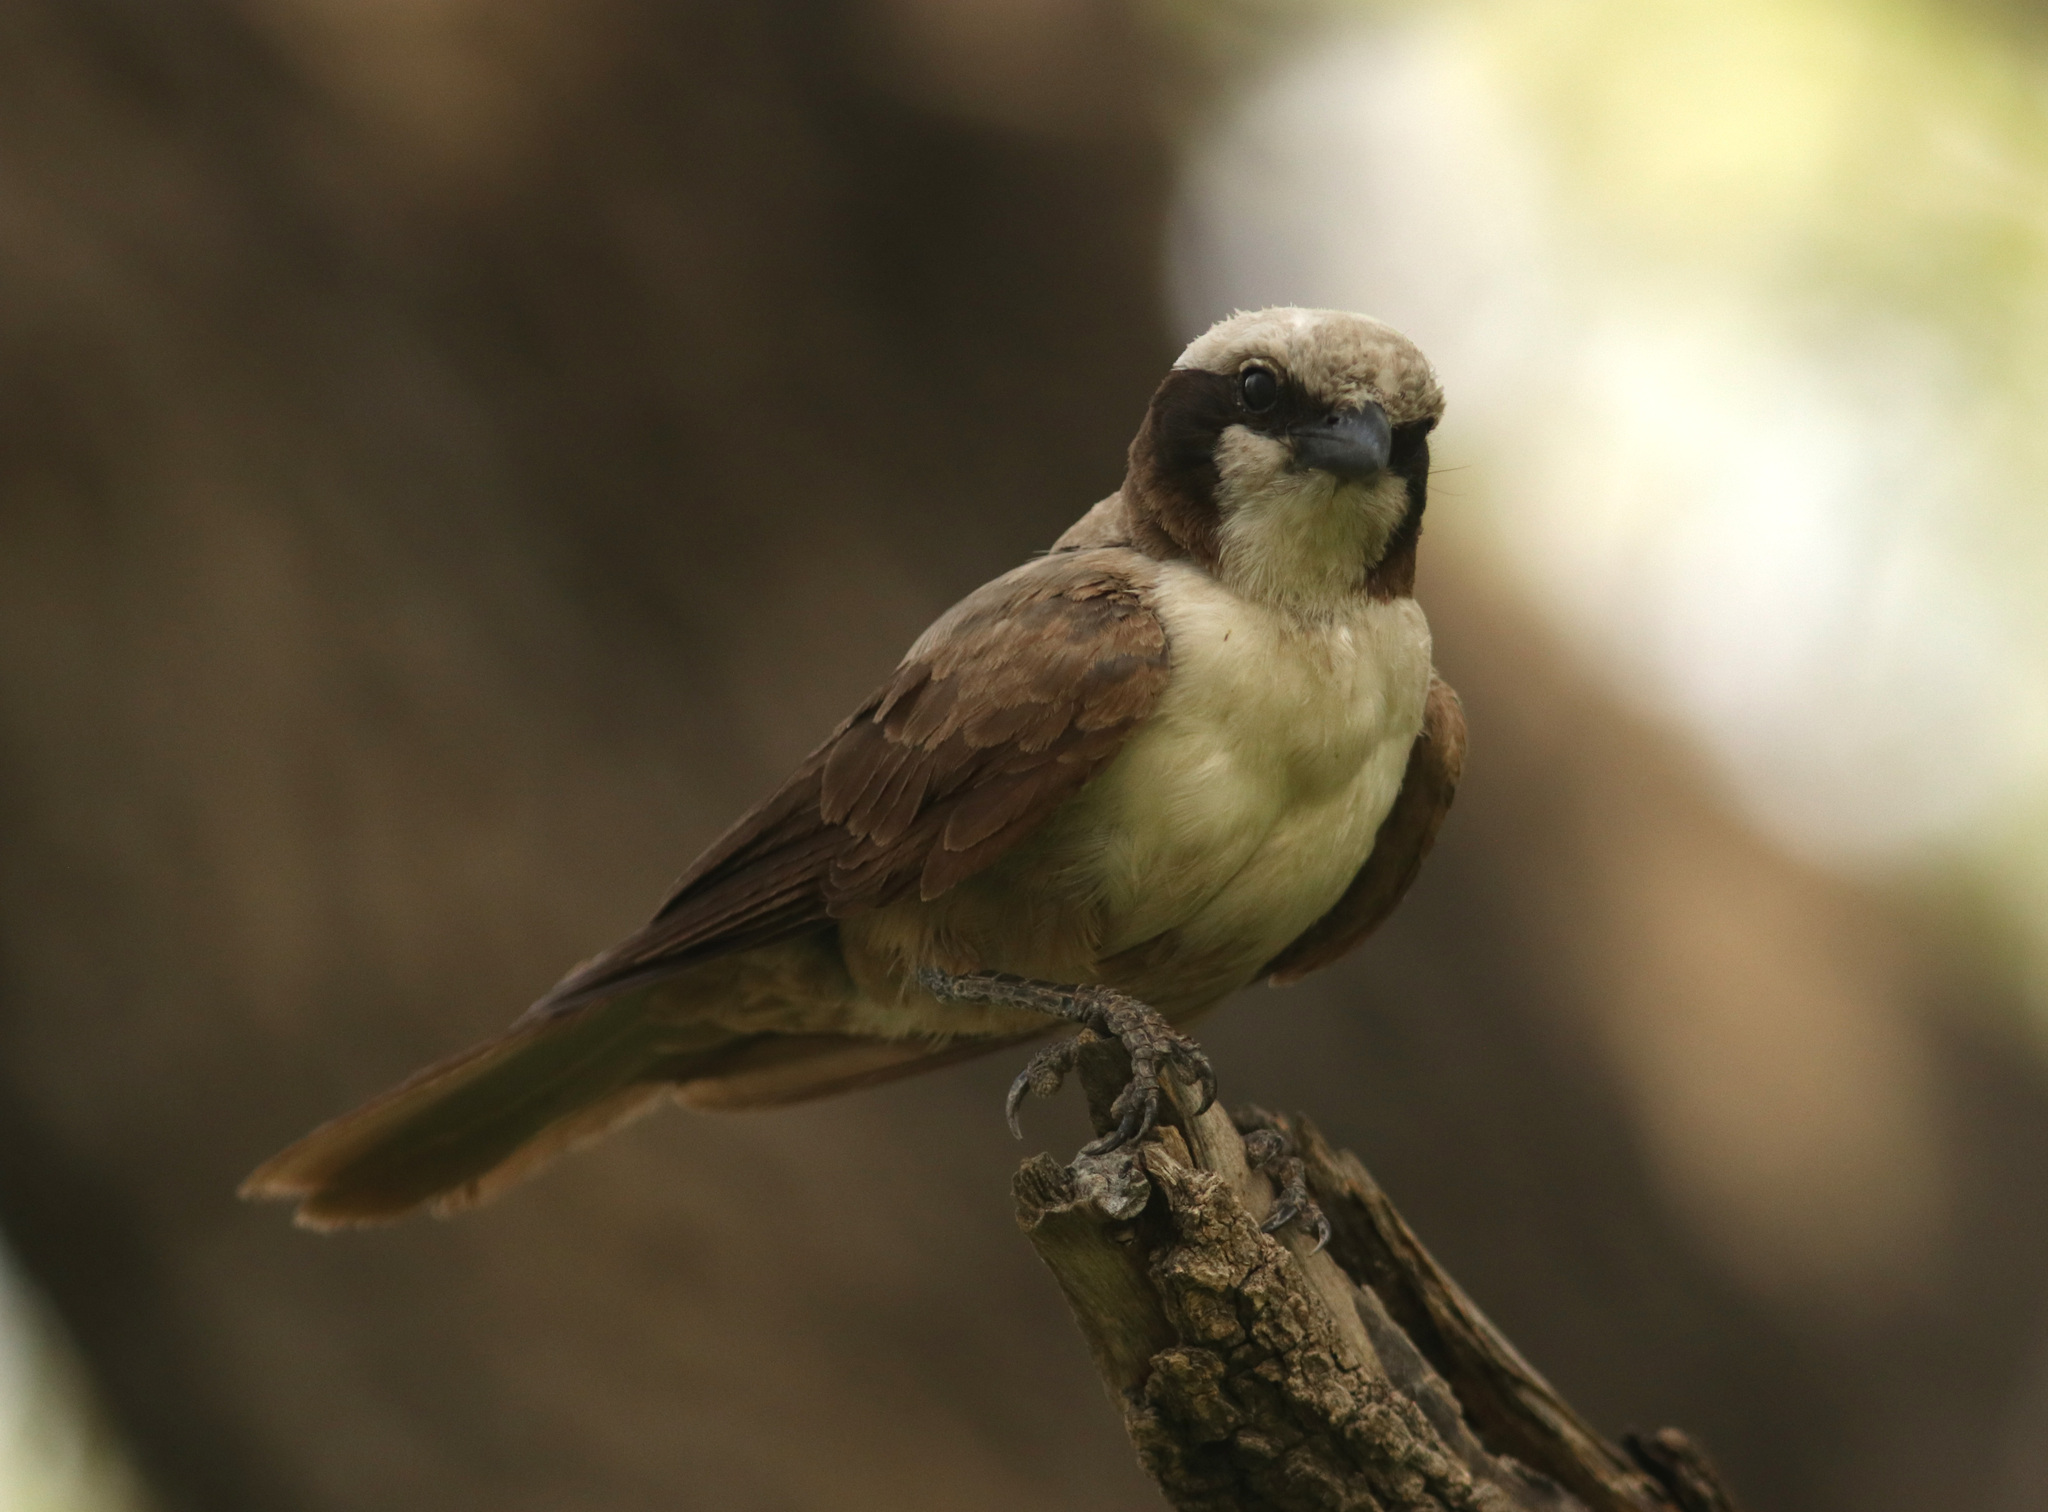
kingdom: Animalia
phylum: Chordata
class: Aves
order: Passeriformes
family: Laniidae
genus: Eurocephalus
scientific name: Eurocephalus anguitimens
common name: Southern white-crowned shrike
